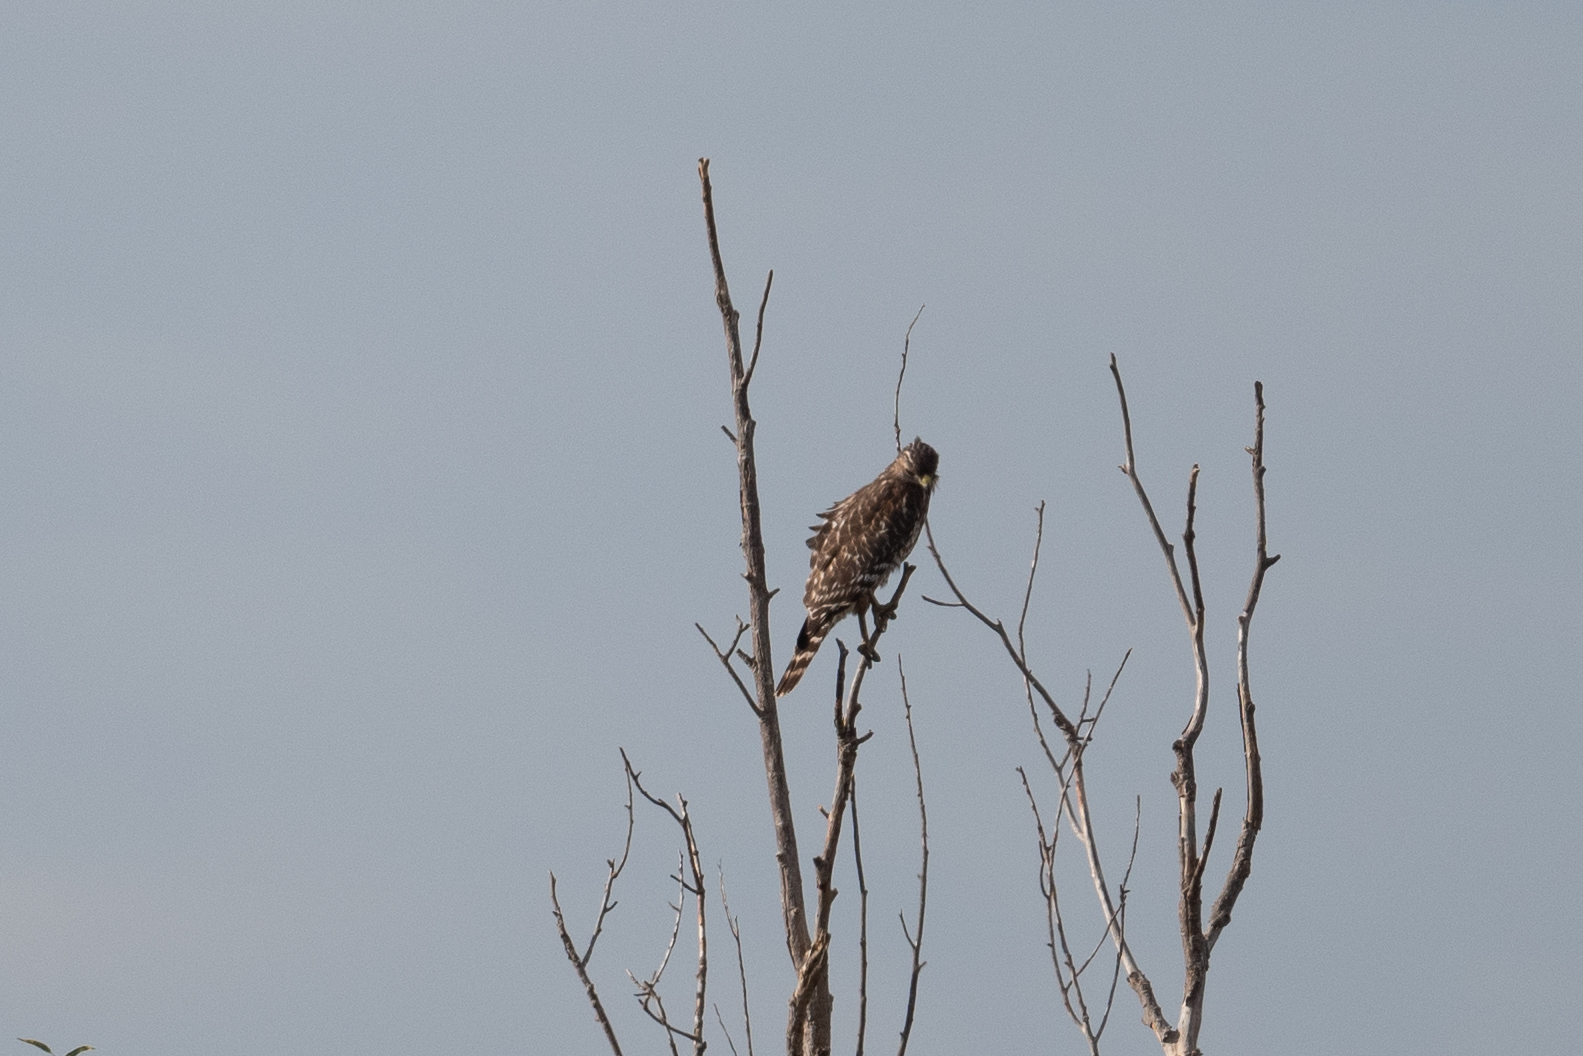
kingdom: Animalia
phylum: Chordata
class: Aves
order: Accipitriformes
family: Accipitridae
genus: Buteo
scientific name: Buteo lineatus
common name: Red-shouldered hawk
